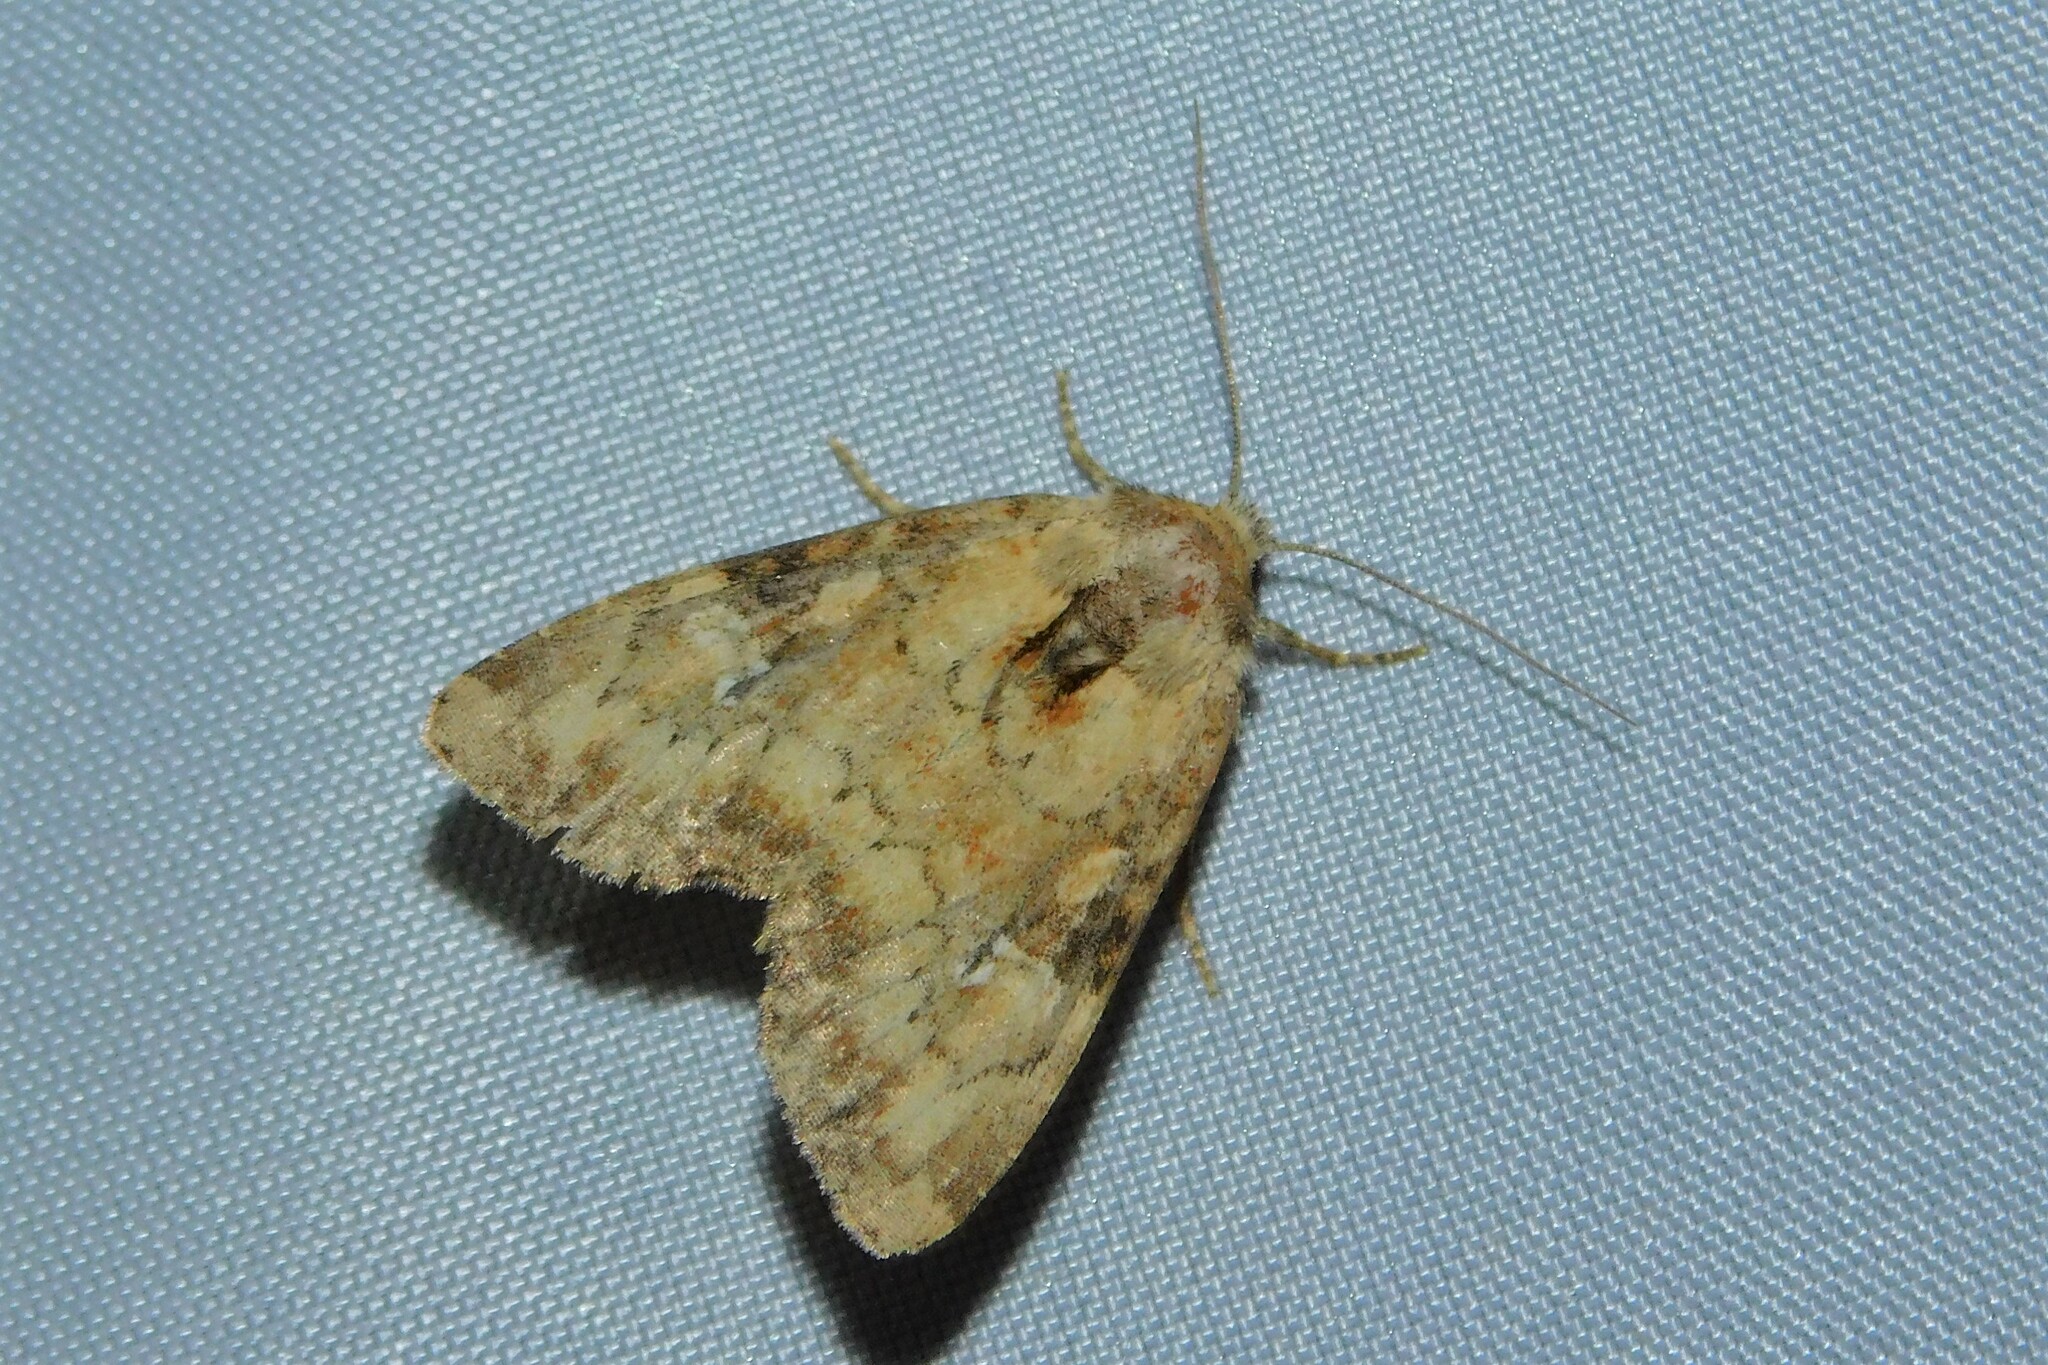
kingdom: Animalia
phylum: Arthropoda
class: Insecta
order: Lepidoptera
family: Noctuidae
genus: Loscopia
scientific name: Loscopia scolopacina
